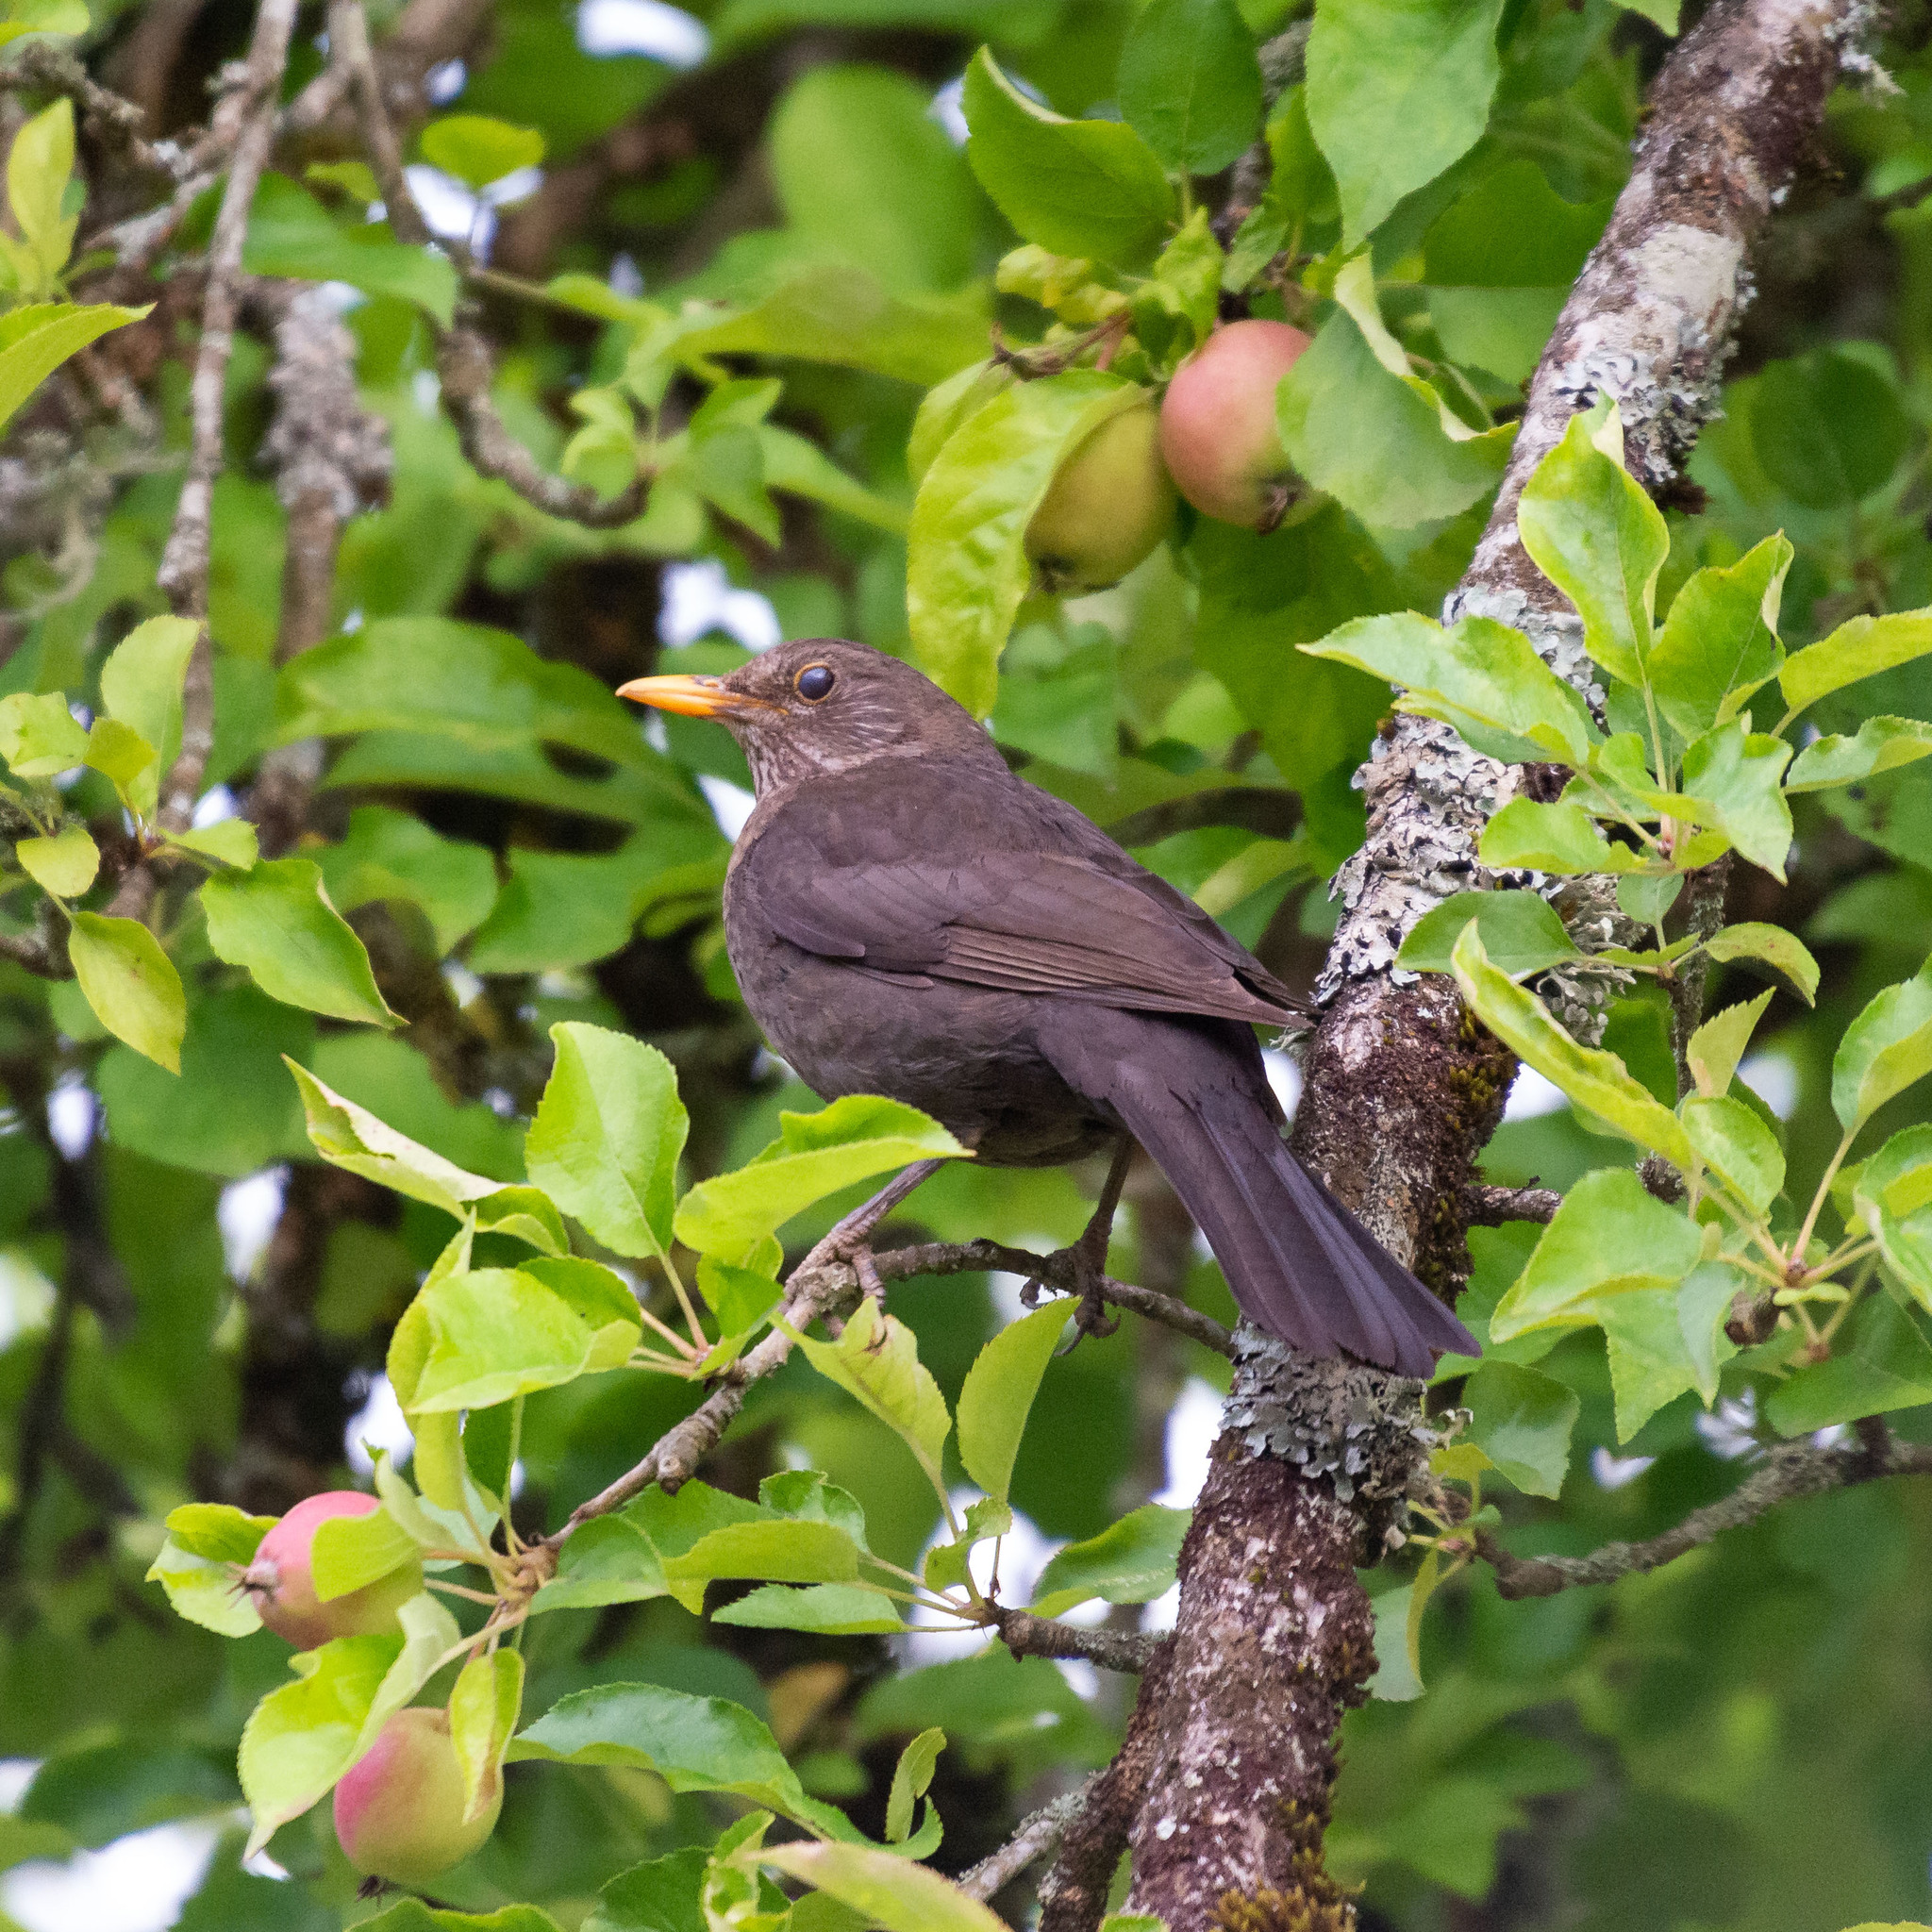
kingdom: Animalia
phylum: Chordata
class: Aves
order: Passeriformes
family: Turdidae
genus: Turdus
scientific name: Turdus merula
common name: Common blackbird
